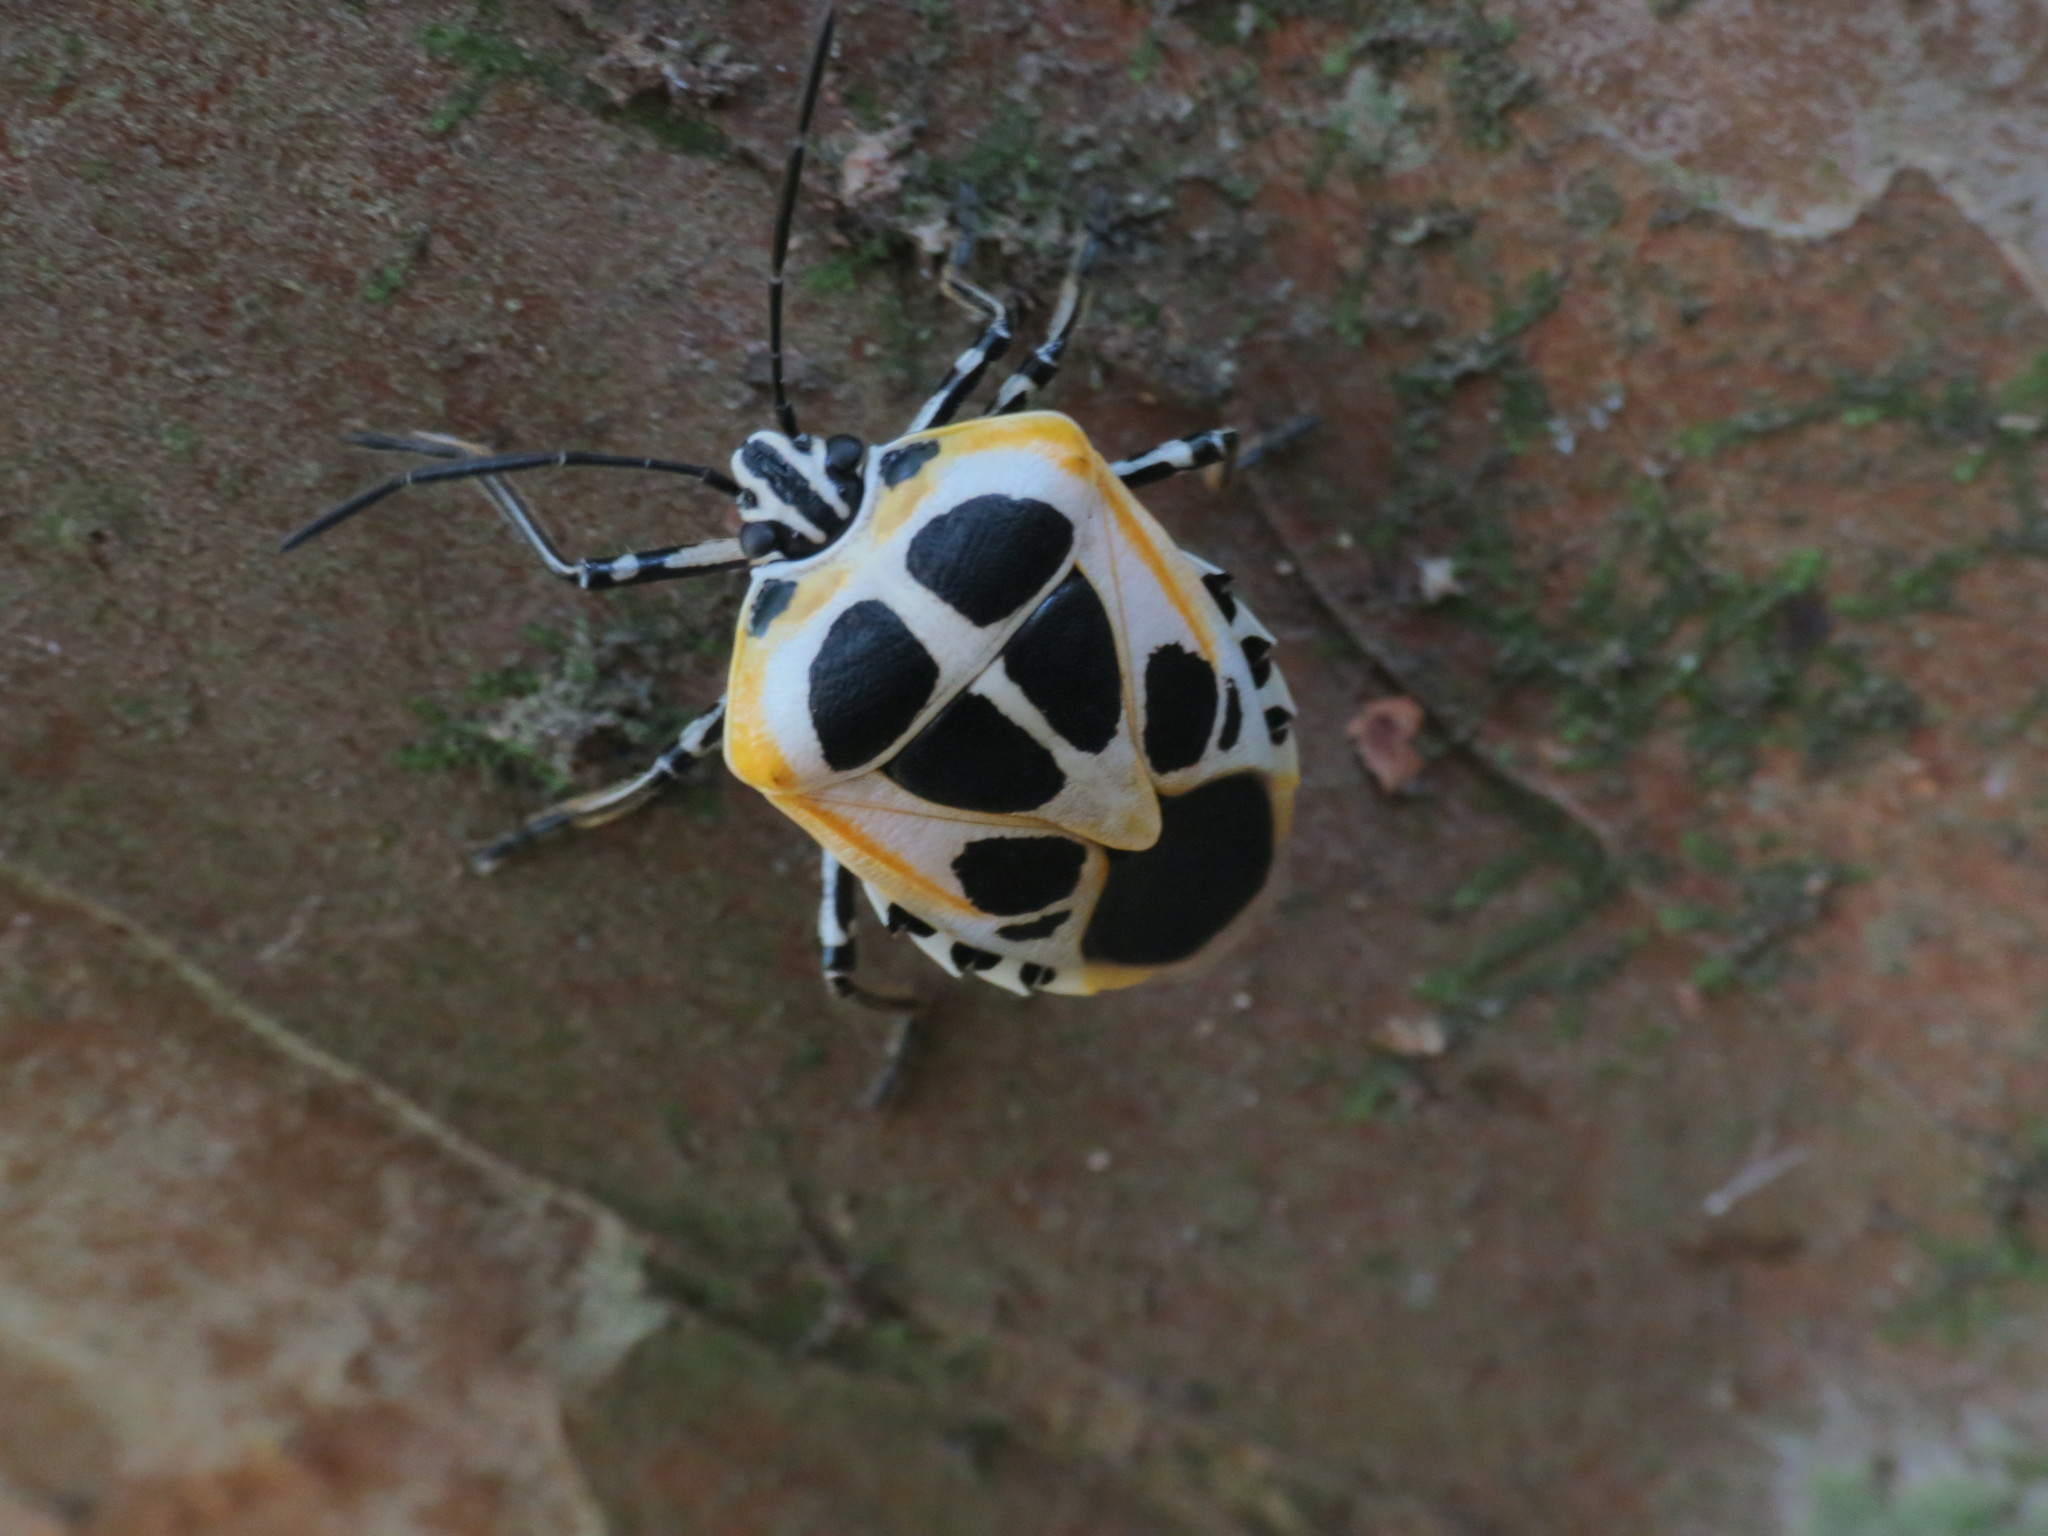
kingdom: Animalia
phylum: Arthropoda
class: Insecta
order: Hemiptera
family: Pentatomidae
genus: Runibia
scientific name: Runibia perspicua
